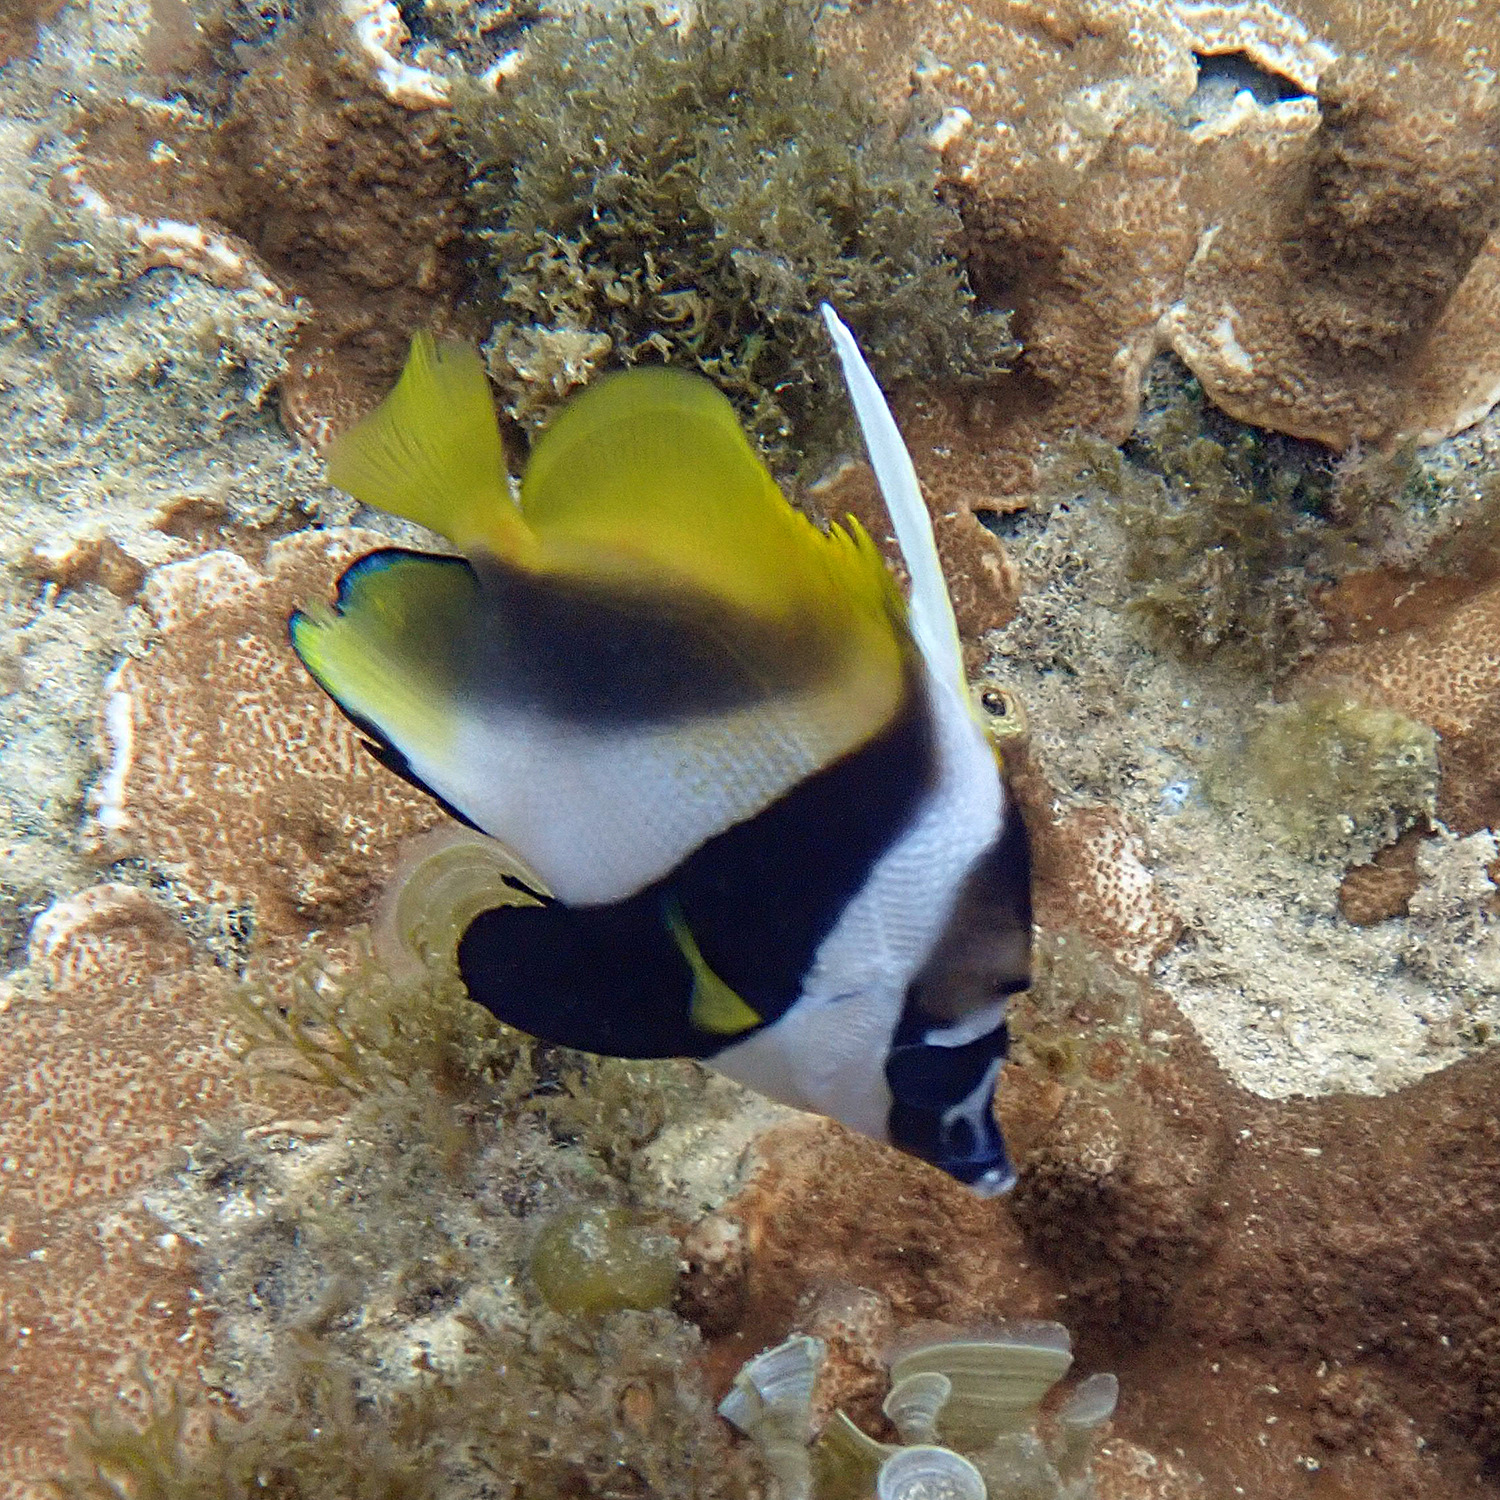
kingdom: Animalia
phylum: Chordata
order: Perciformes
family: Chaetodontidae
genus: Heniochus
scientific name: Heniochus monoceros
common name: Masked bannerfish
